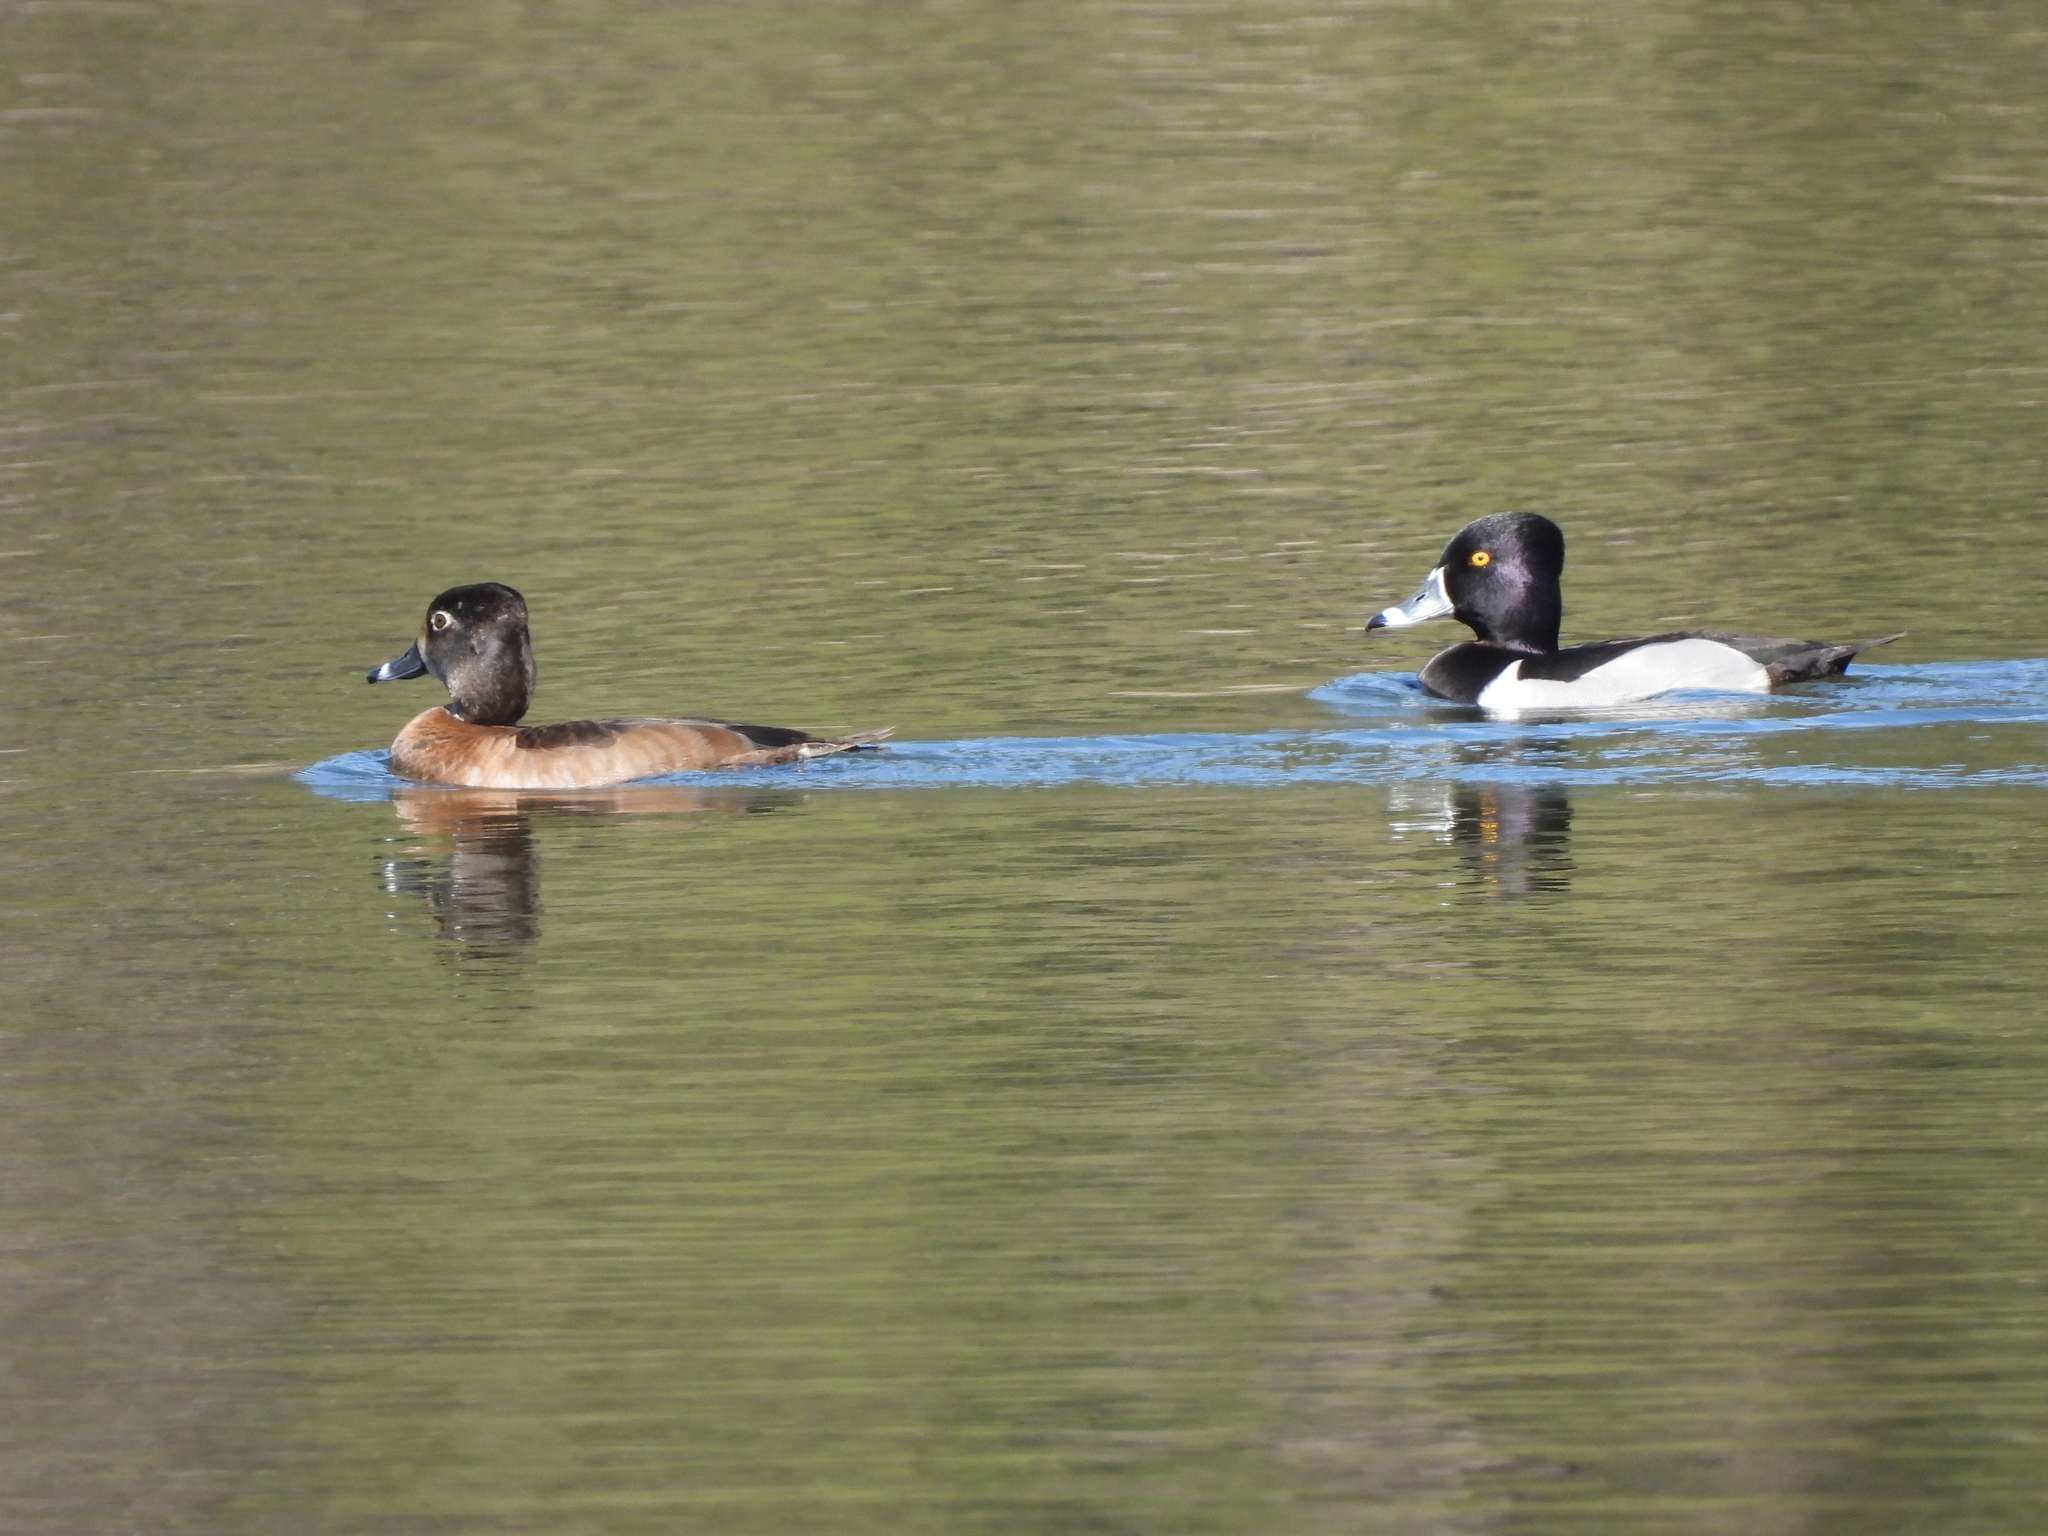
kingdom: Animalia
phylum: Chordata
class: Aves
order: Anseriformes
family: Anatidae
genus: Aythya
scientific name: Aythya collaris
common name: Ring-necked duck
